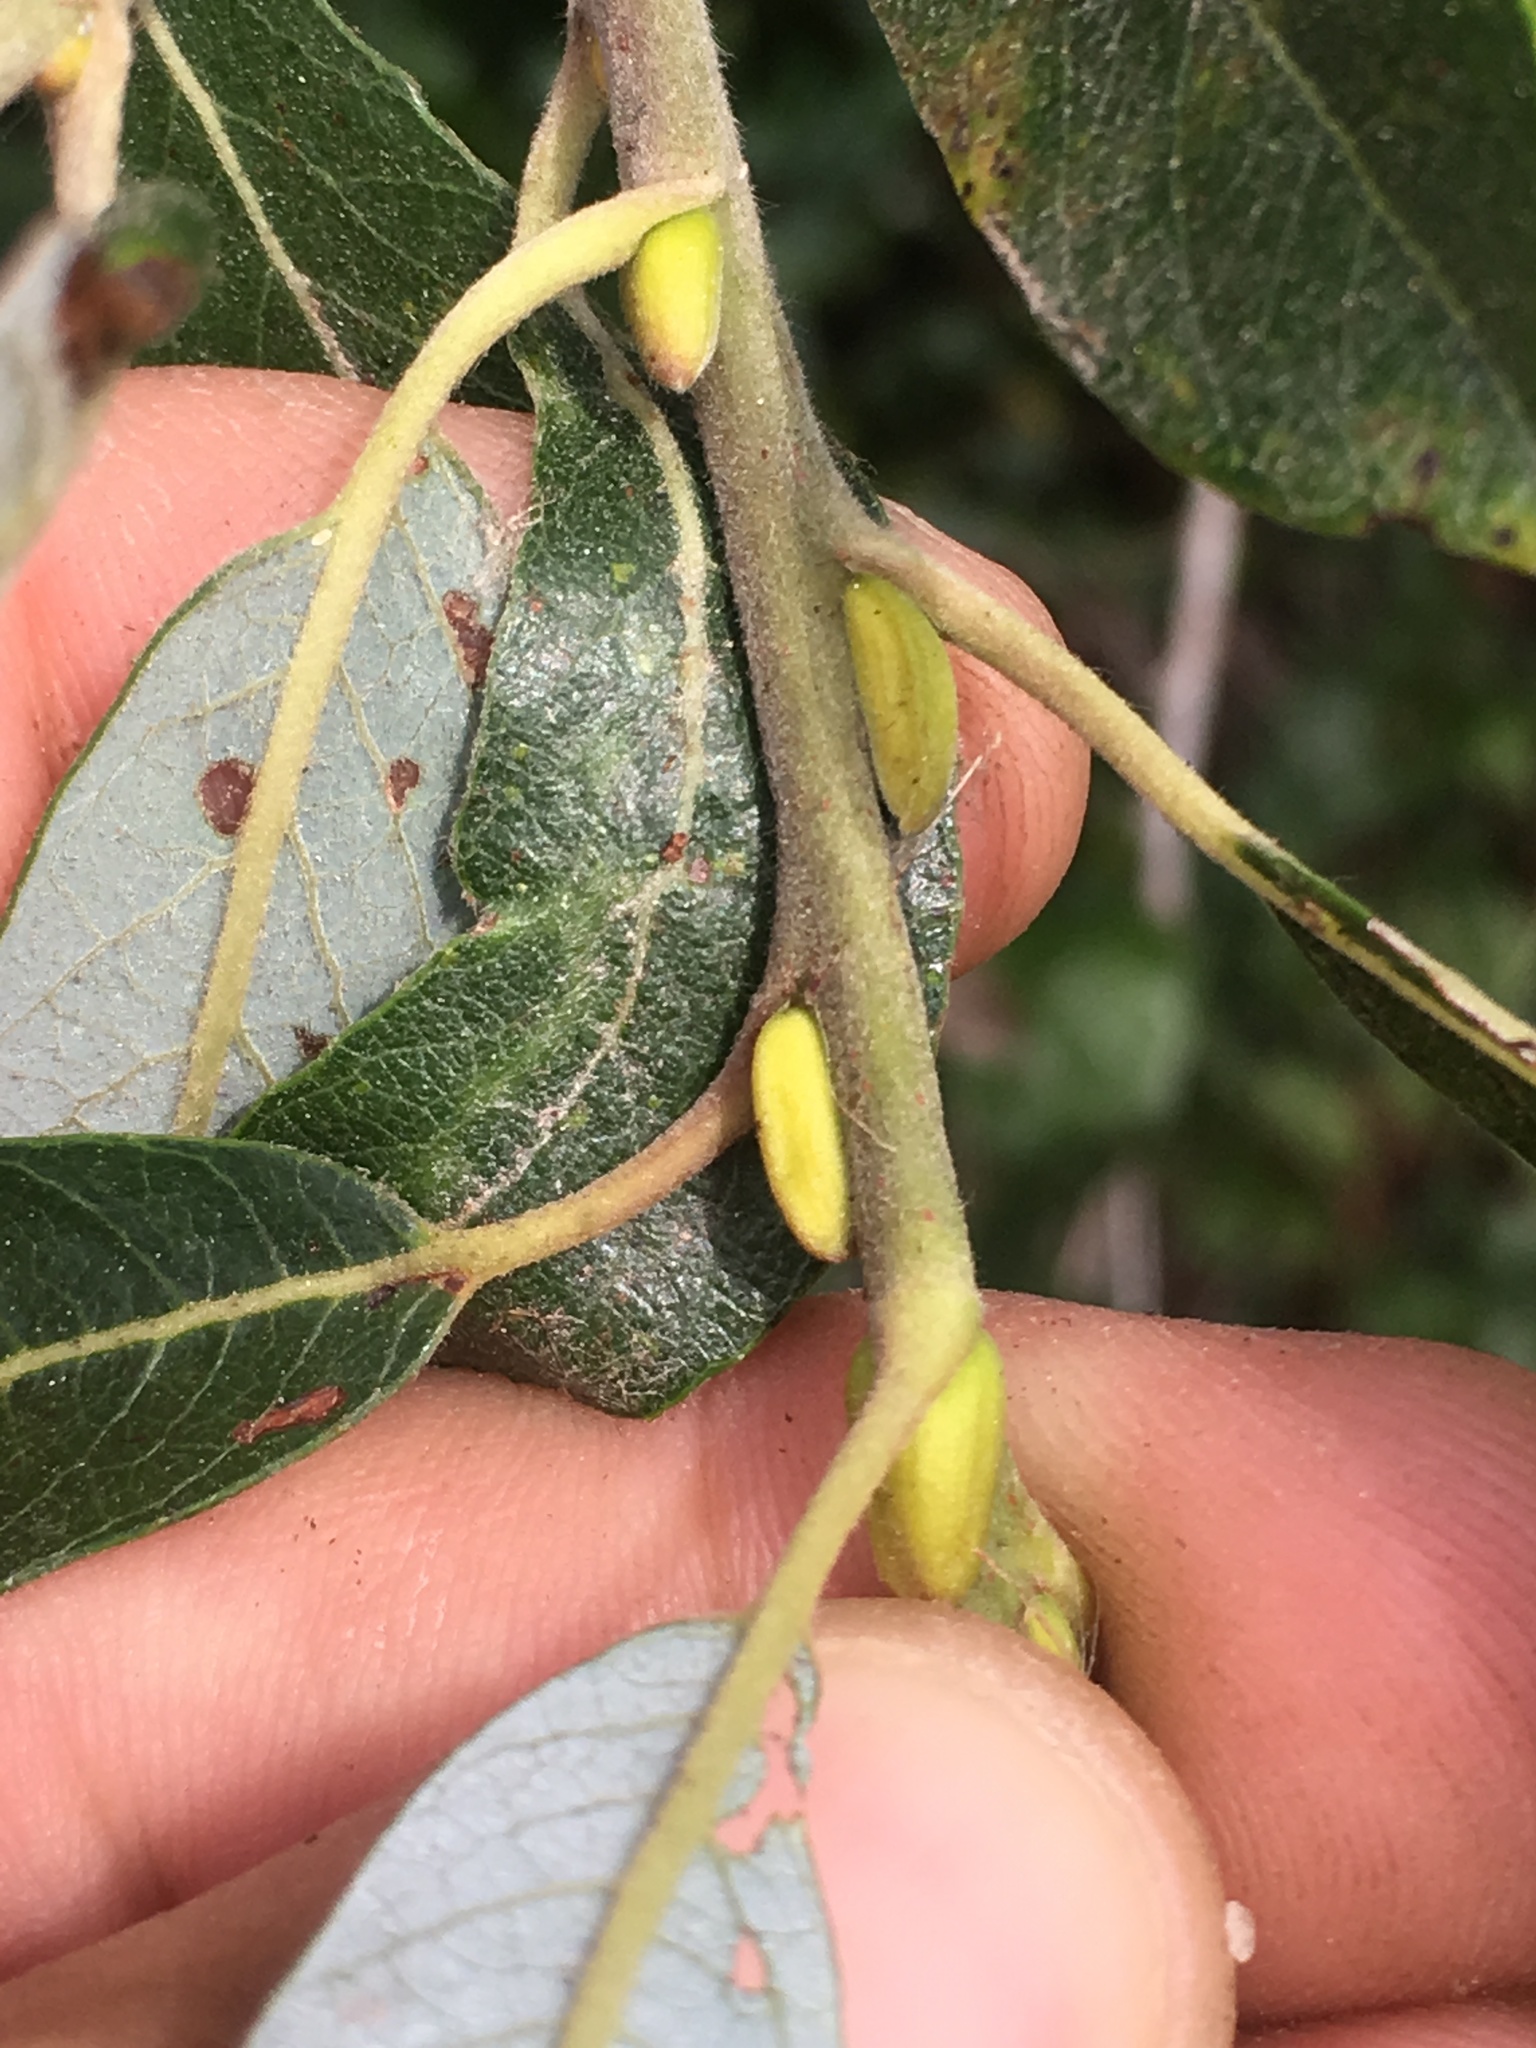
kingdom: Plantae
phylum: Tracheophyta
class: Magnoliopsida
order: Malpighiales
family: Salicaceae
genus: Salix
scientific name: Salix lasiolepis
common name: Arroyo willow
